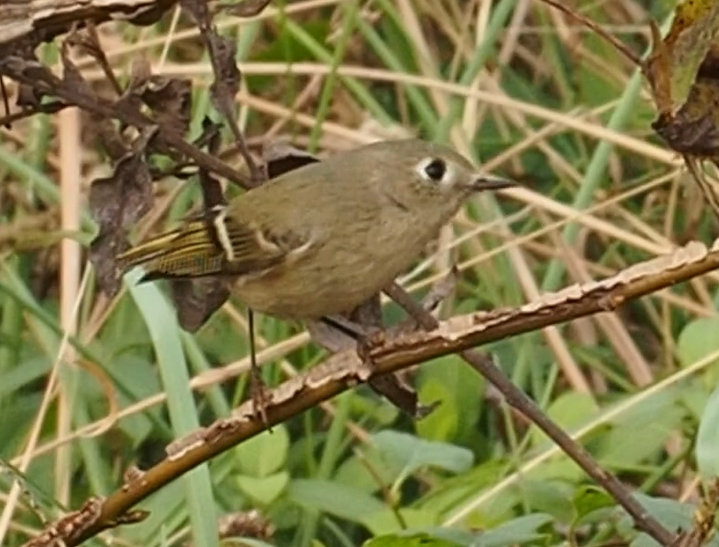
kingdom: Animalia
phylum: Chordata
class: Aves
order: Passeriformes
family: Regulidae
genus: Regulus
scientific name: Regulus calendula
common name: Ruby-crowned kinglet
